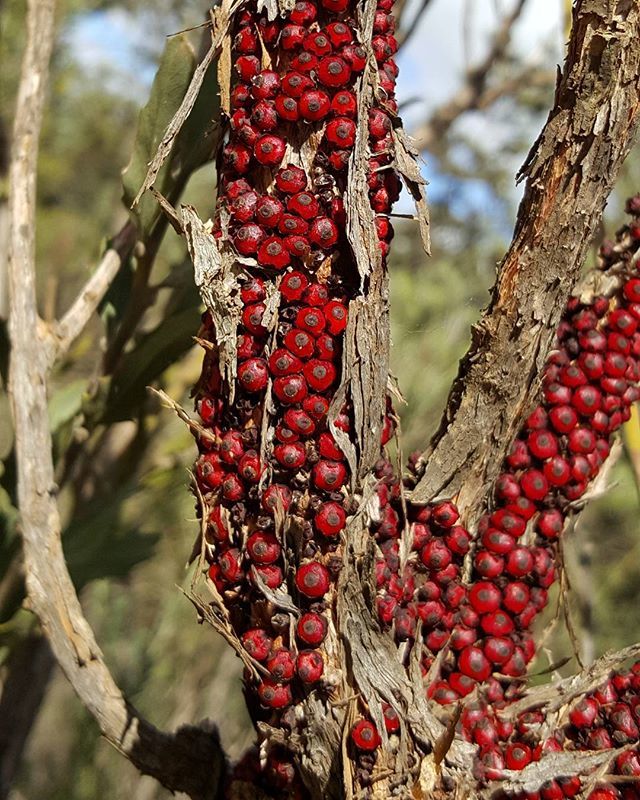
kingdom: Plantae
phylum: Tracheophyta
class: Magnoliopsida
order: Cucurbitales
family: Apodanthaceae
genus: Pilostyles
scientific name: Pilostyles coccoidea
